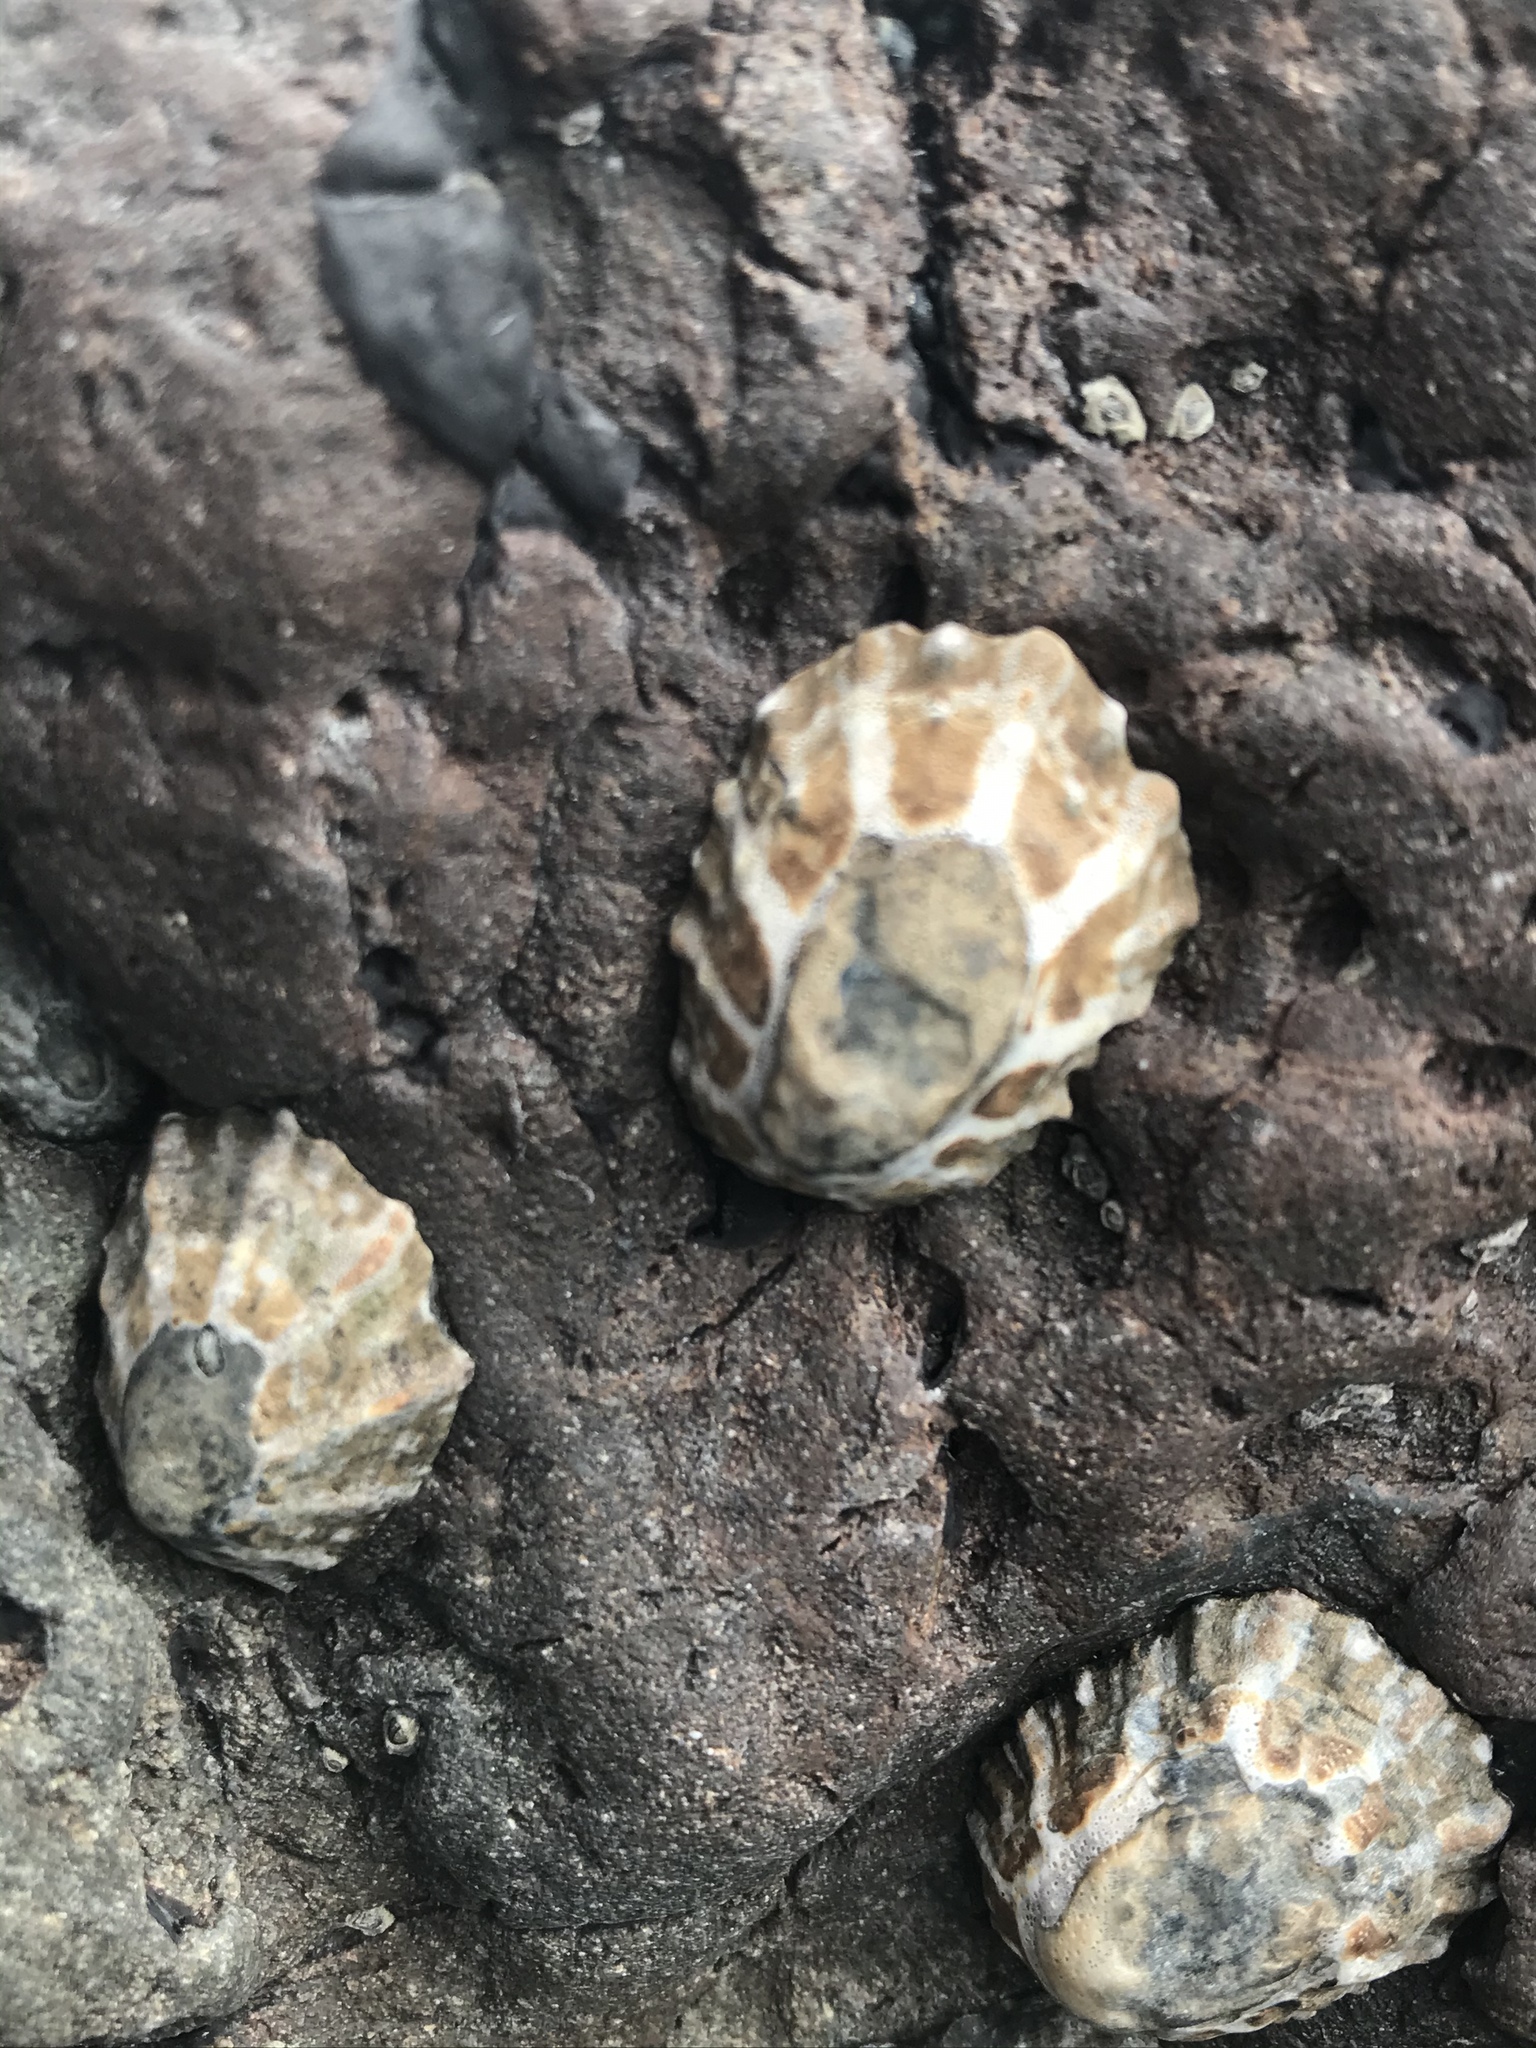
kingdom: Animalia
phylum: Mollusca
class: Gastropoda
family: Nacellidae
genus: Cellana
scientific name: Cellana ornata
